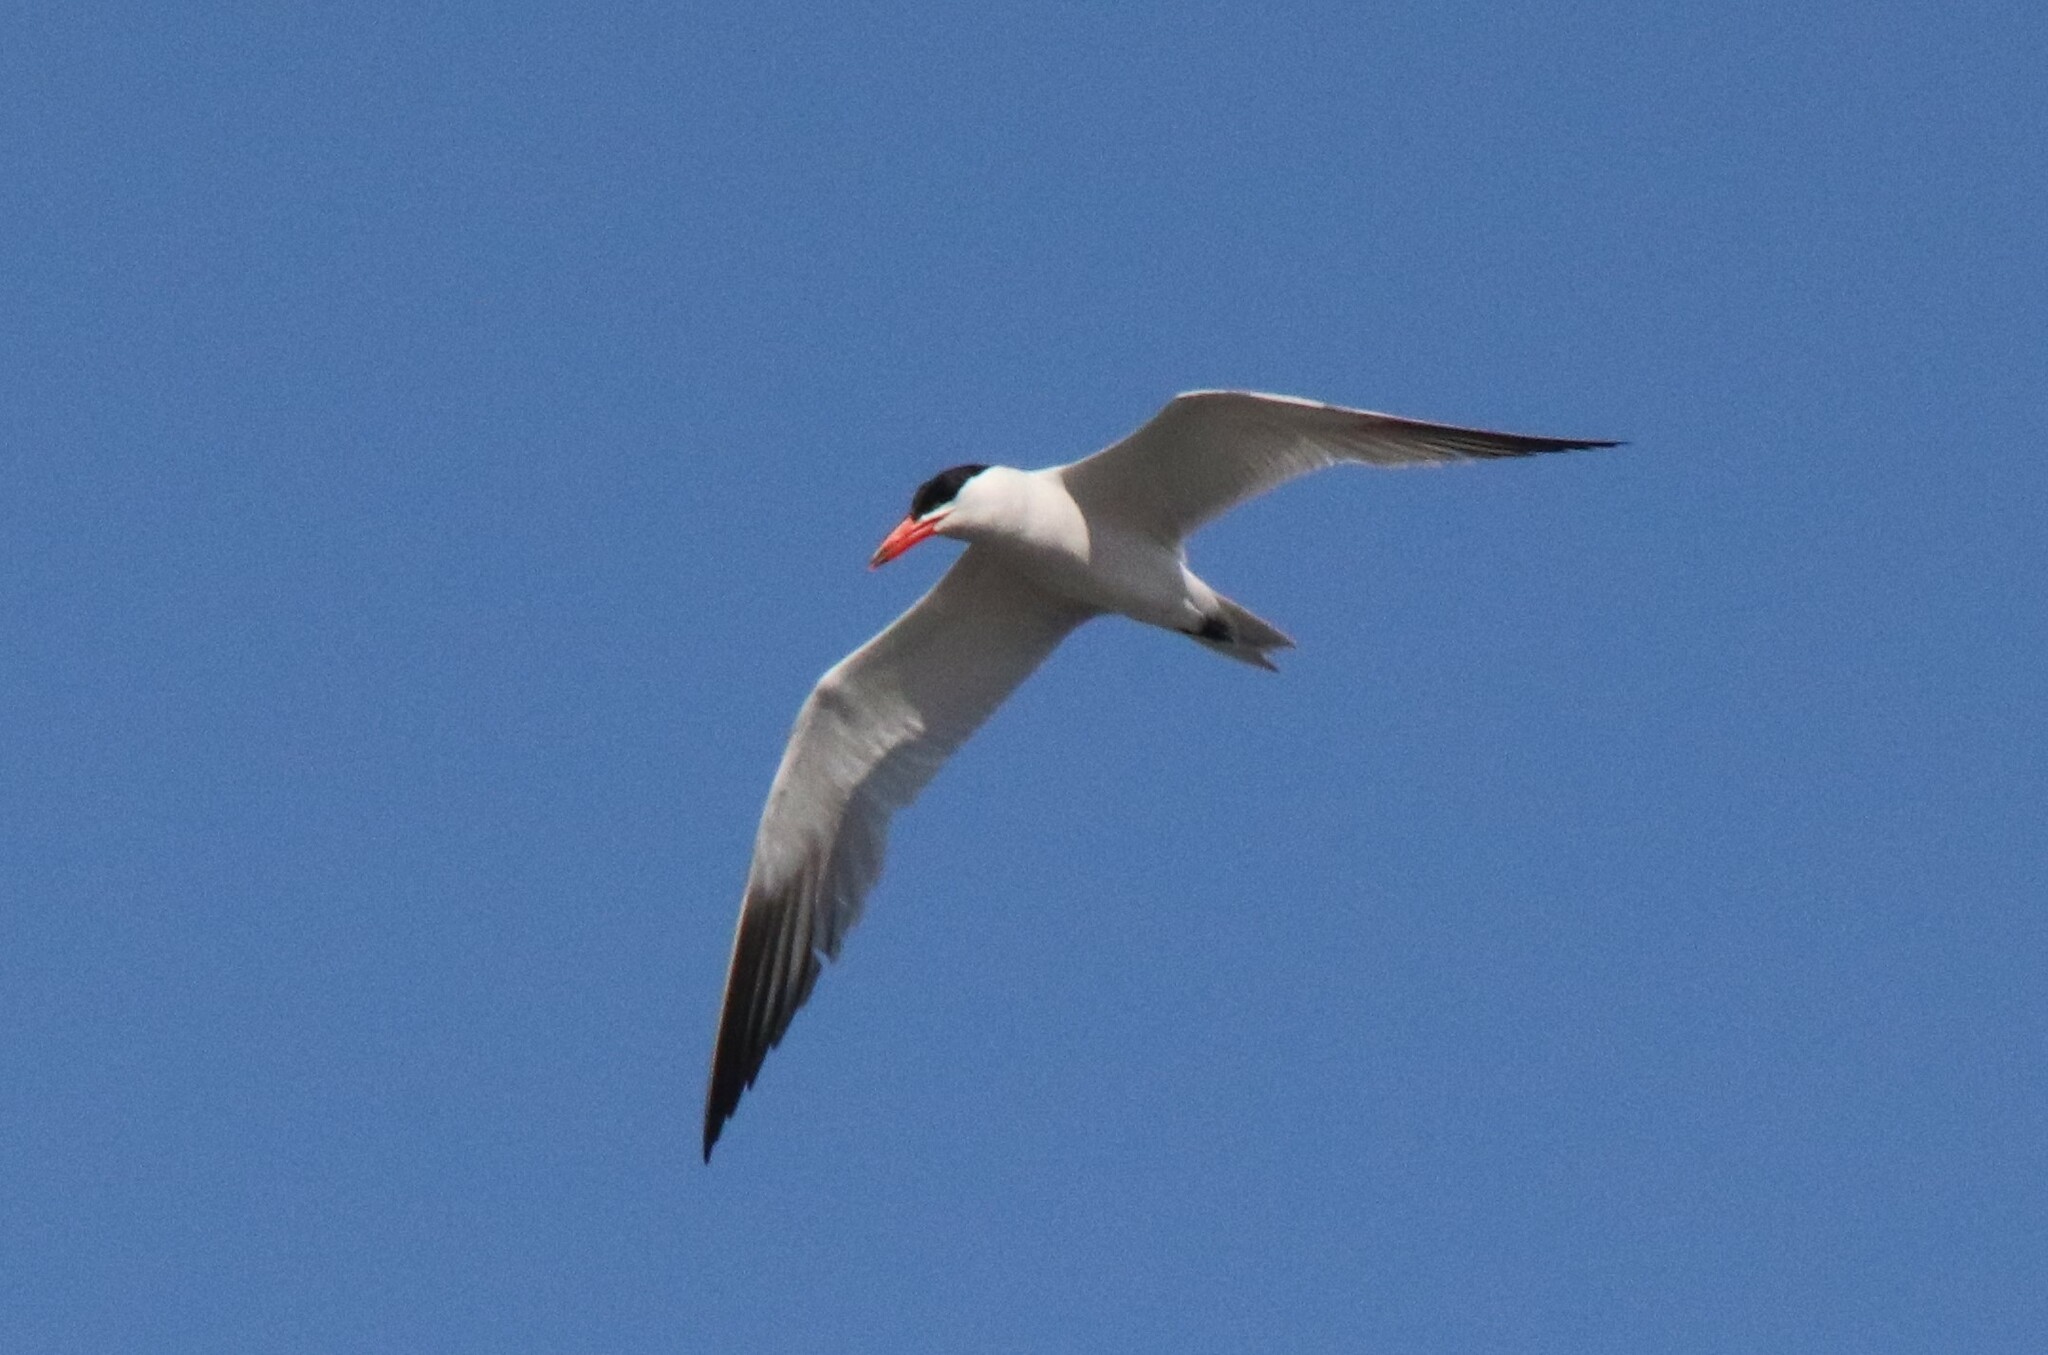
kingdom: Animalia
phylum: Chordata
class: Aves
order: Charadriiformes
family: Laridae
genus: Hydroprogne
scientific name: Hydroprogne caspia
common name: Caspian tern
